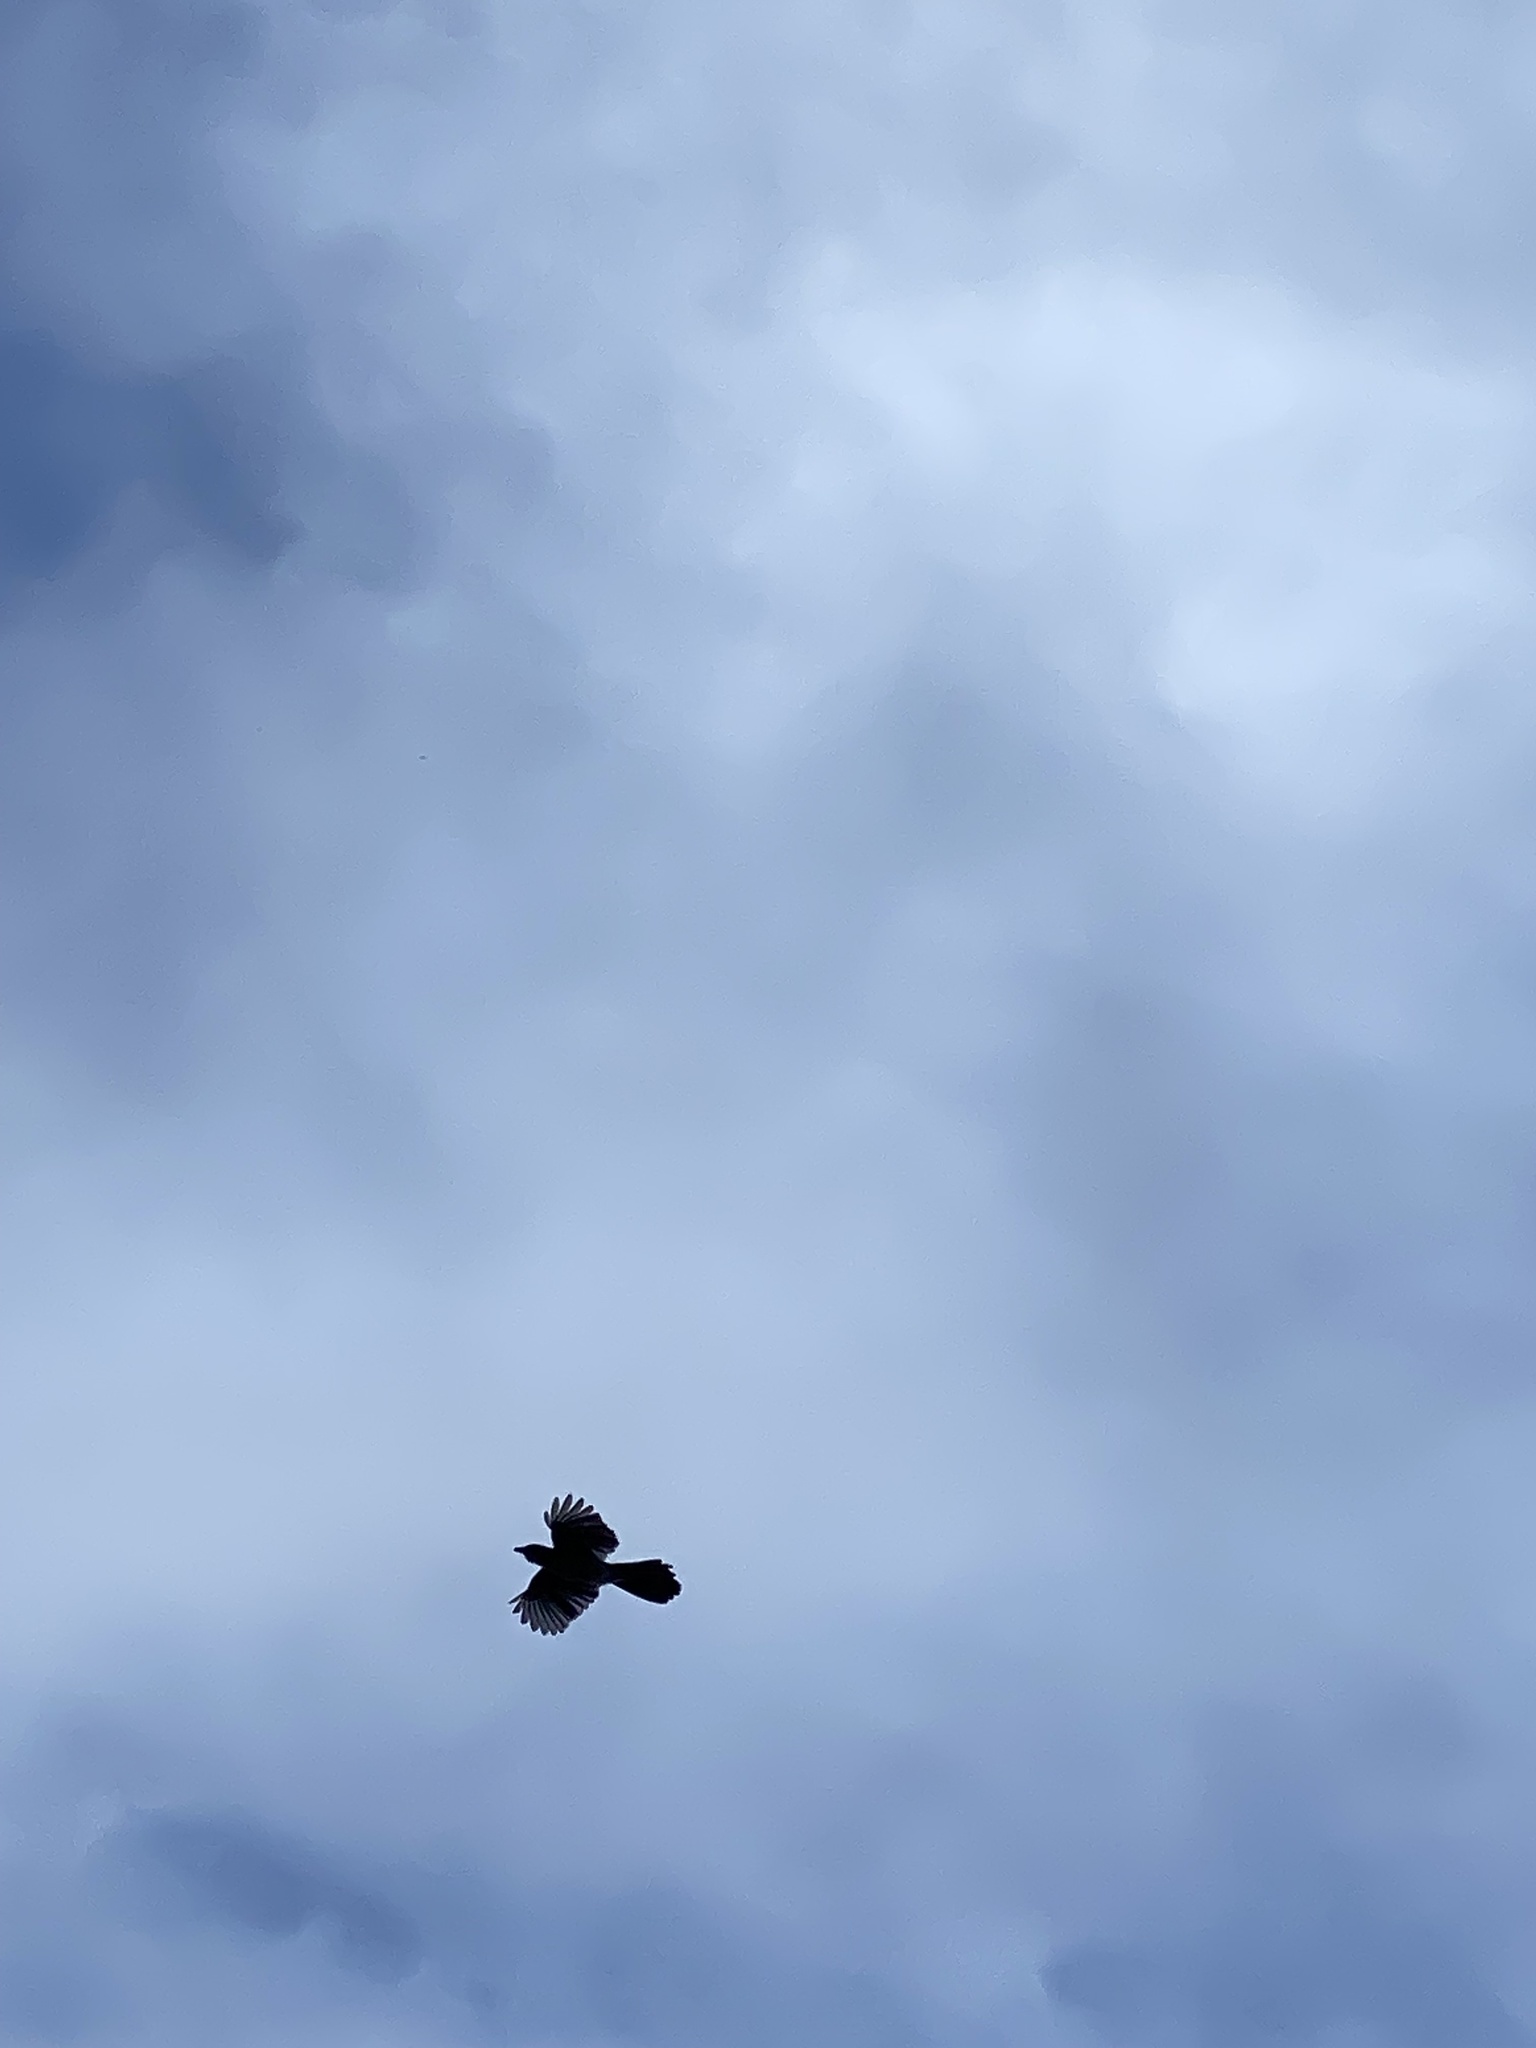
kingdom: Animalia
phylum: Chordata
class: Aves
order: Passeriformes
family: Corvidae
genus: Aphelocoma
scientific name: Aphelocoma californica
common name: California scrub-jay
